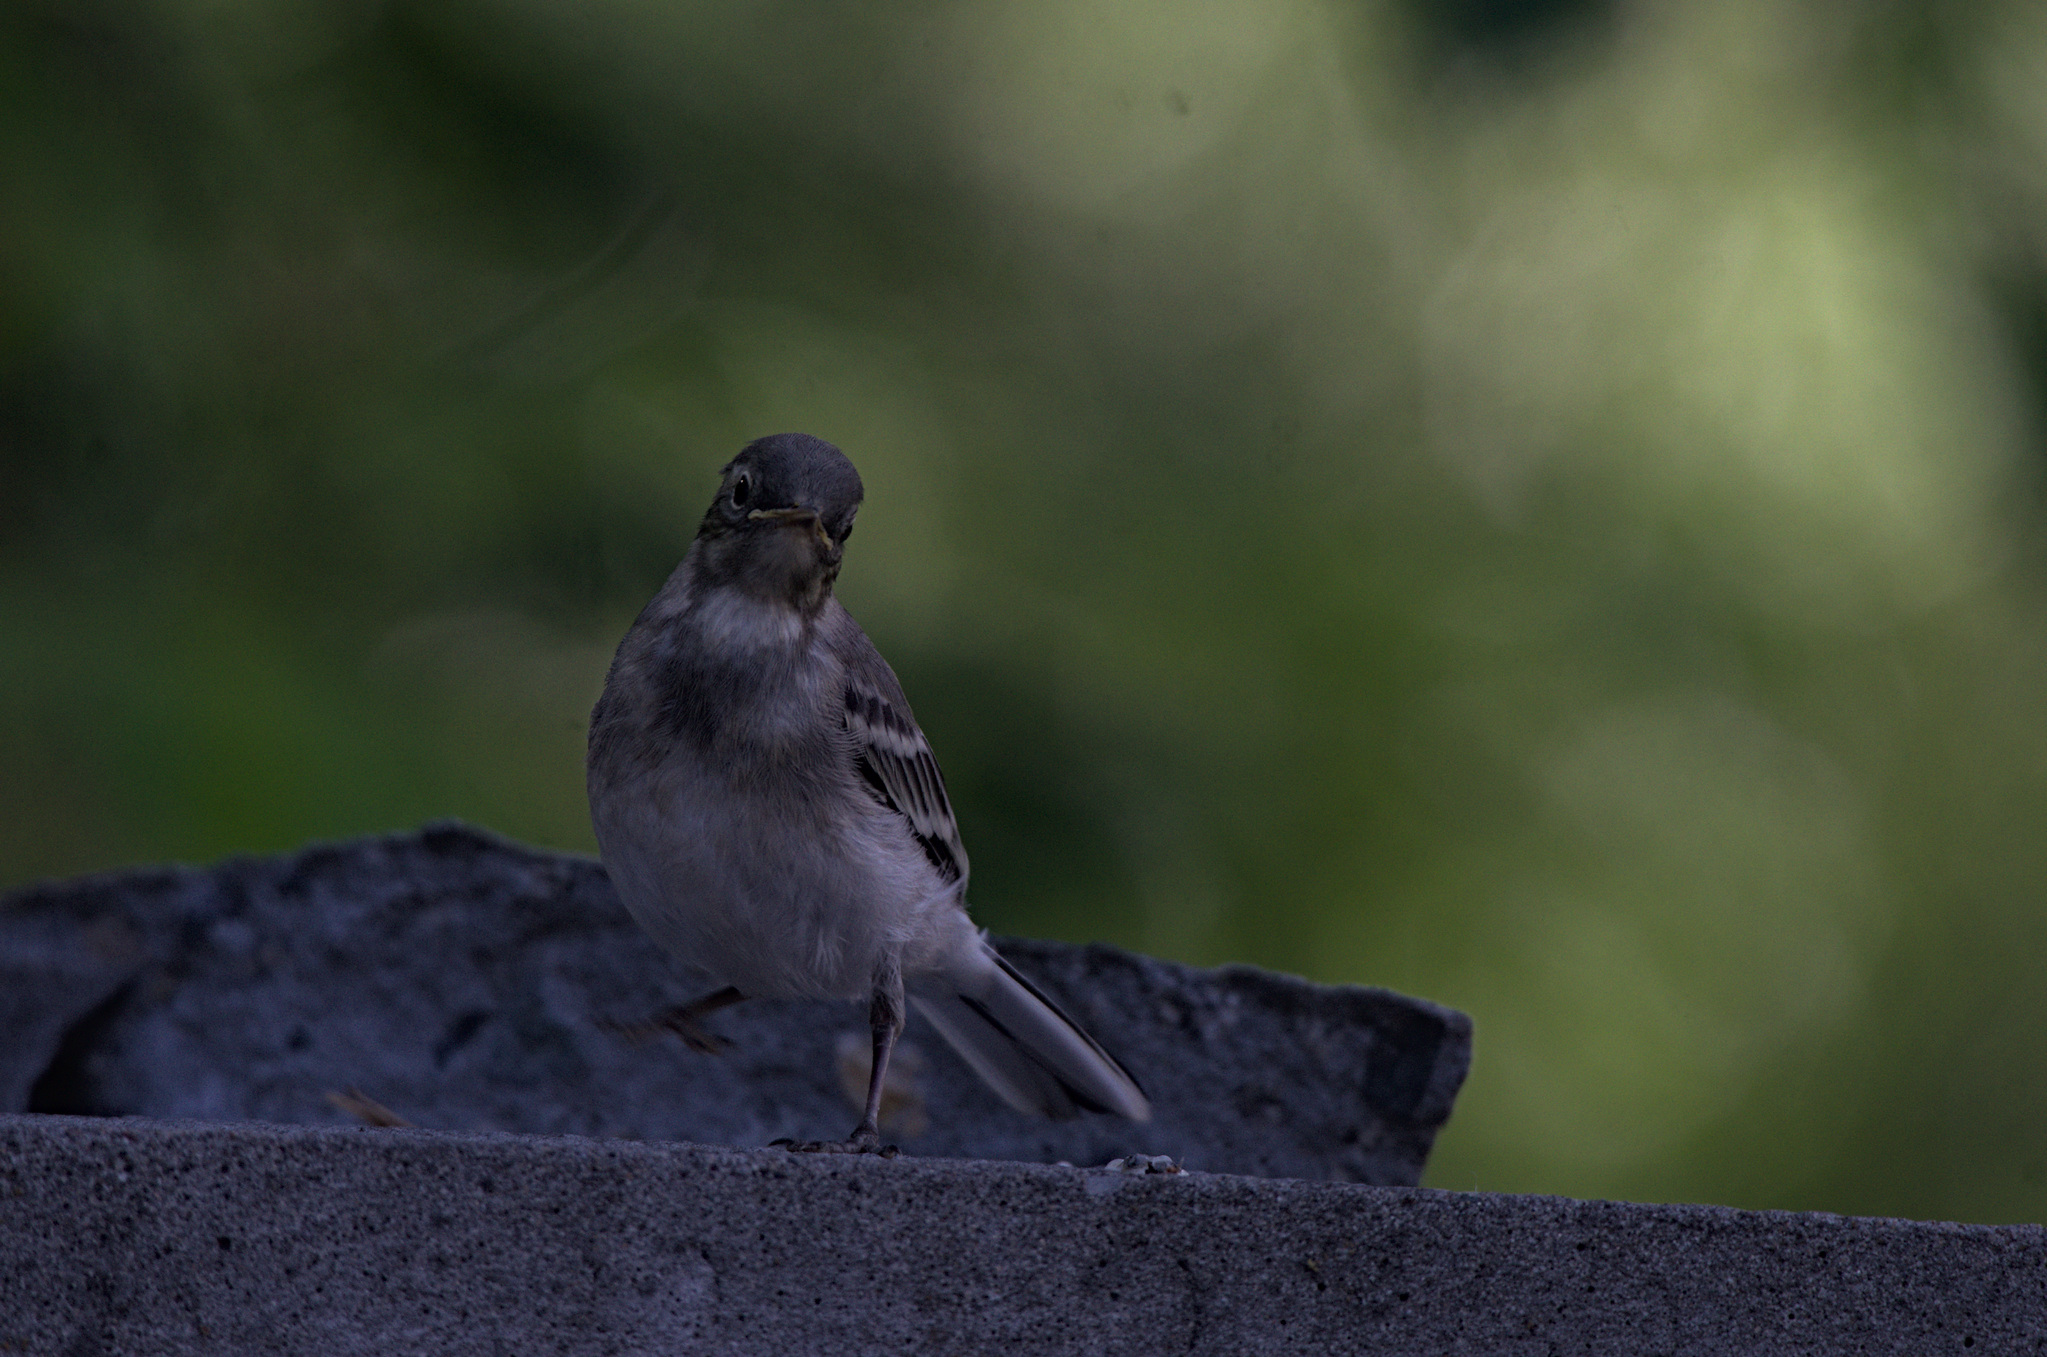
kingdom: Animalia
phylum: Chordata
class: Aves
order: Passeriformes
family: Motacillidae
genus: Motacilla
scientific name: Motacilla alba
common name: White wagtail
